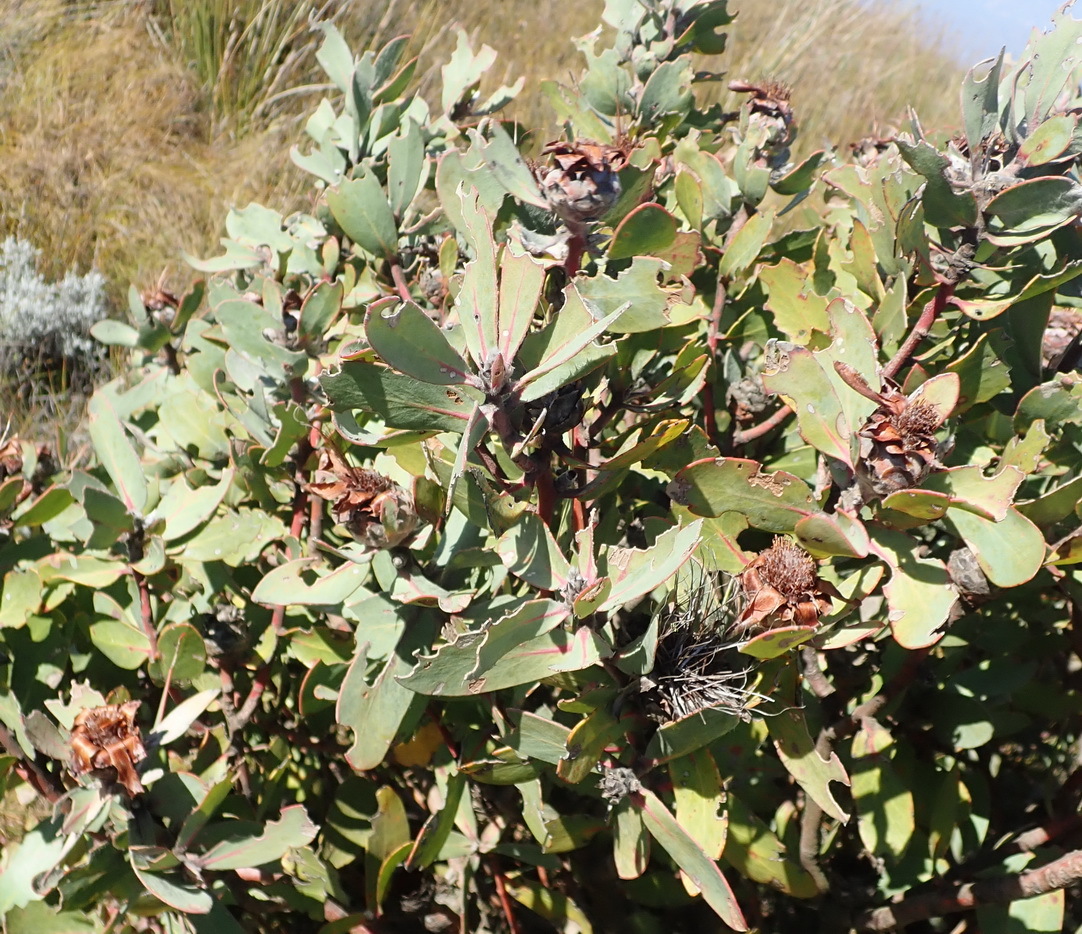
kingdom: Plantae
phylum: Tracheophyta
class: Magnoliopsida
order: Proteales
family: Proteaceae
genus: Protea
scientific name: Protea punctata
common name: Water sugarbush
